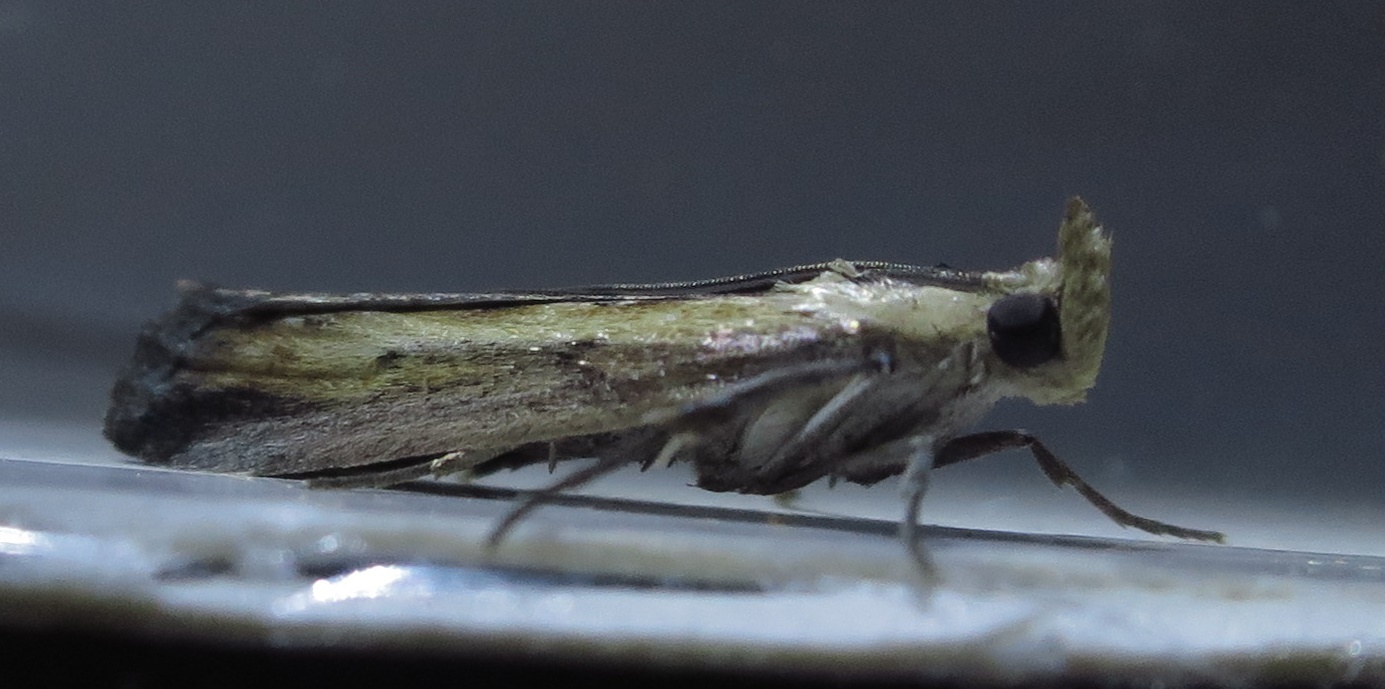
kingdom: Animalia
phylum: Arthropoda
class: Insecta
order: Lepidoptera
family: Pyralidae
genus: Morosaphycita
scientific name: Morosaphycita oculiferella
